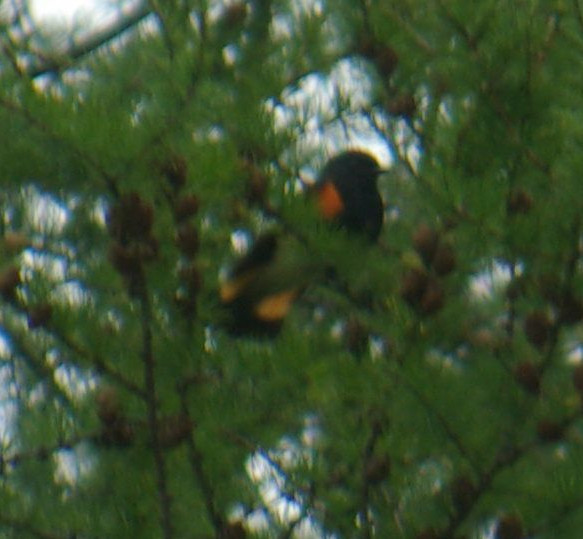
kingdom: Animalia
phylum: Chordata
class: Aves
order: Passeriformes
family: Parulidae
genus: Setophaga
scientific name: Setophaga ruticilla
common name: American redstart
